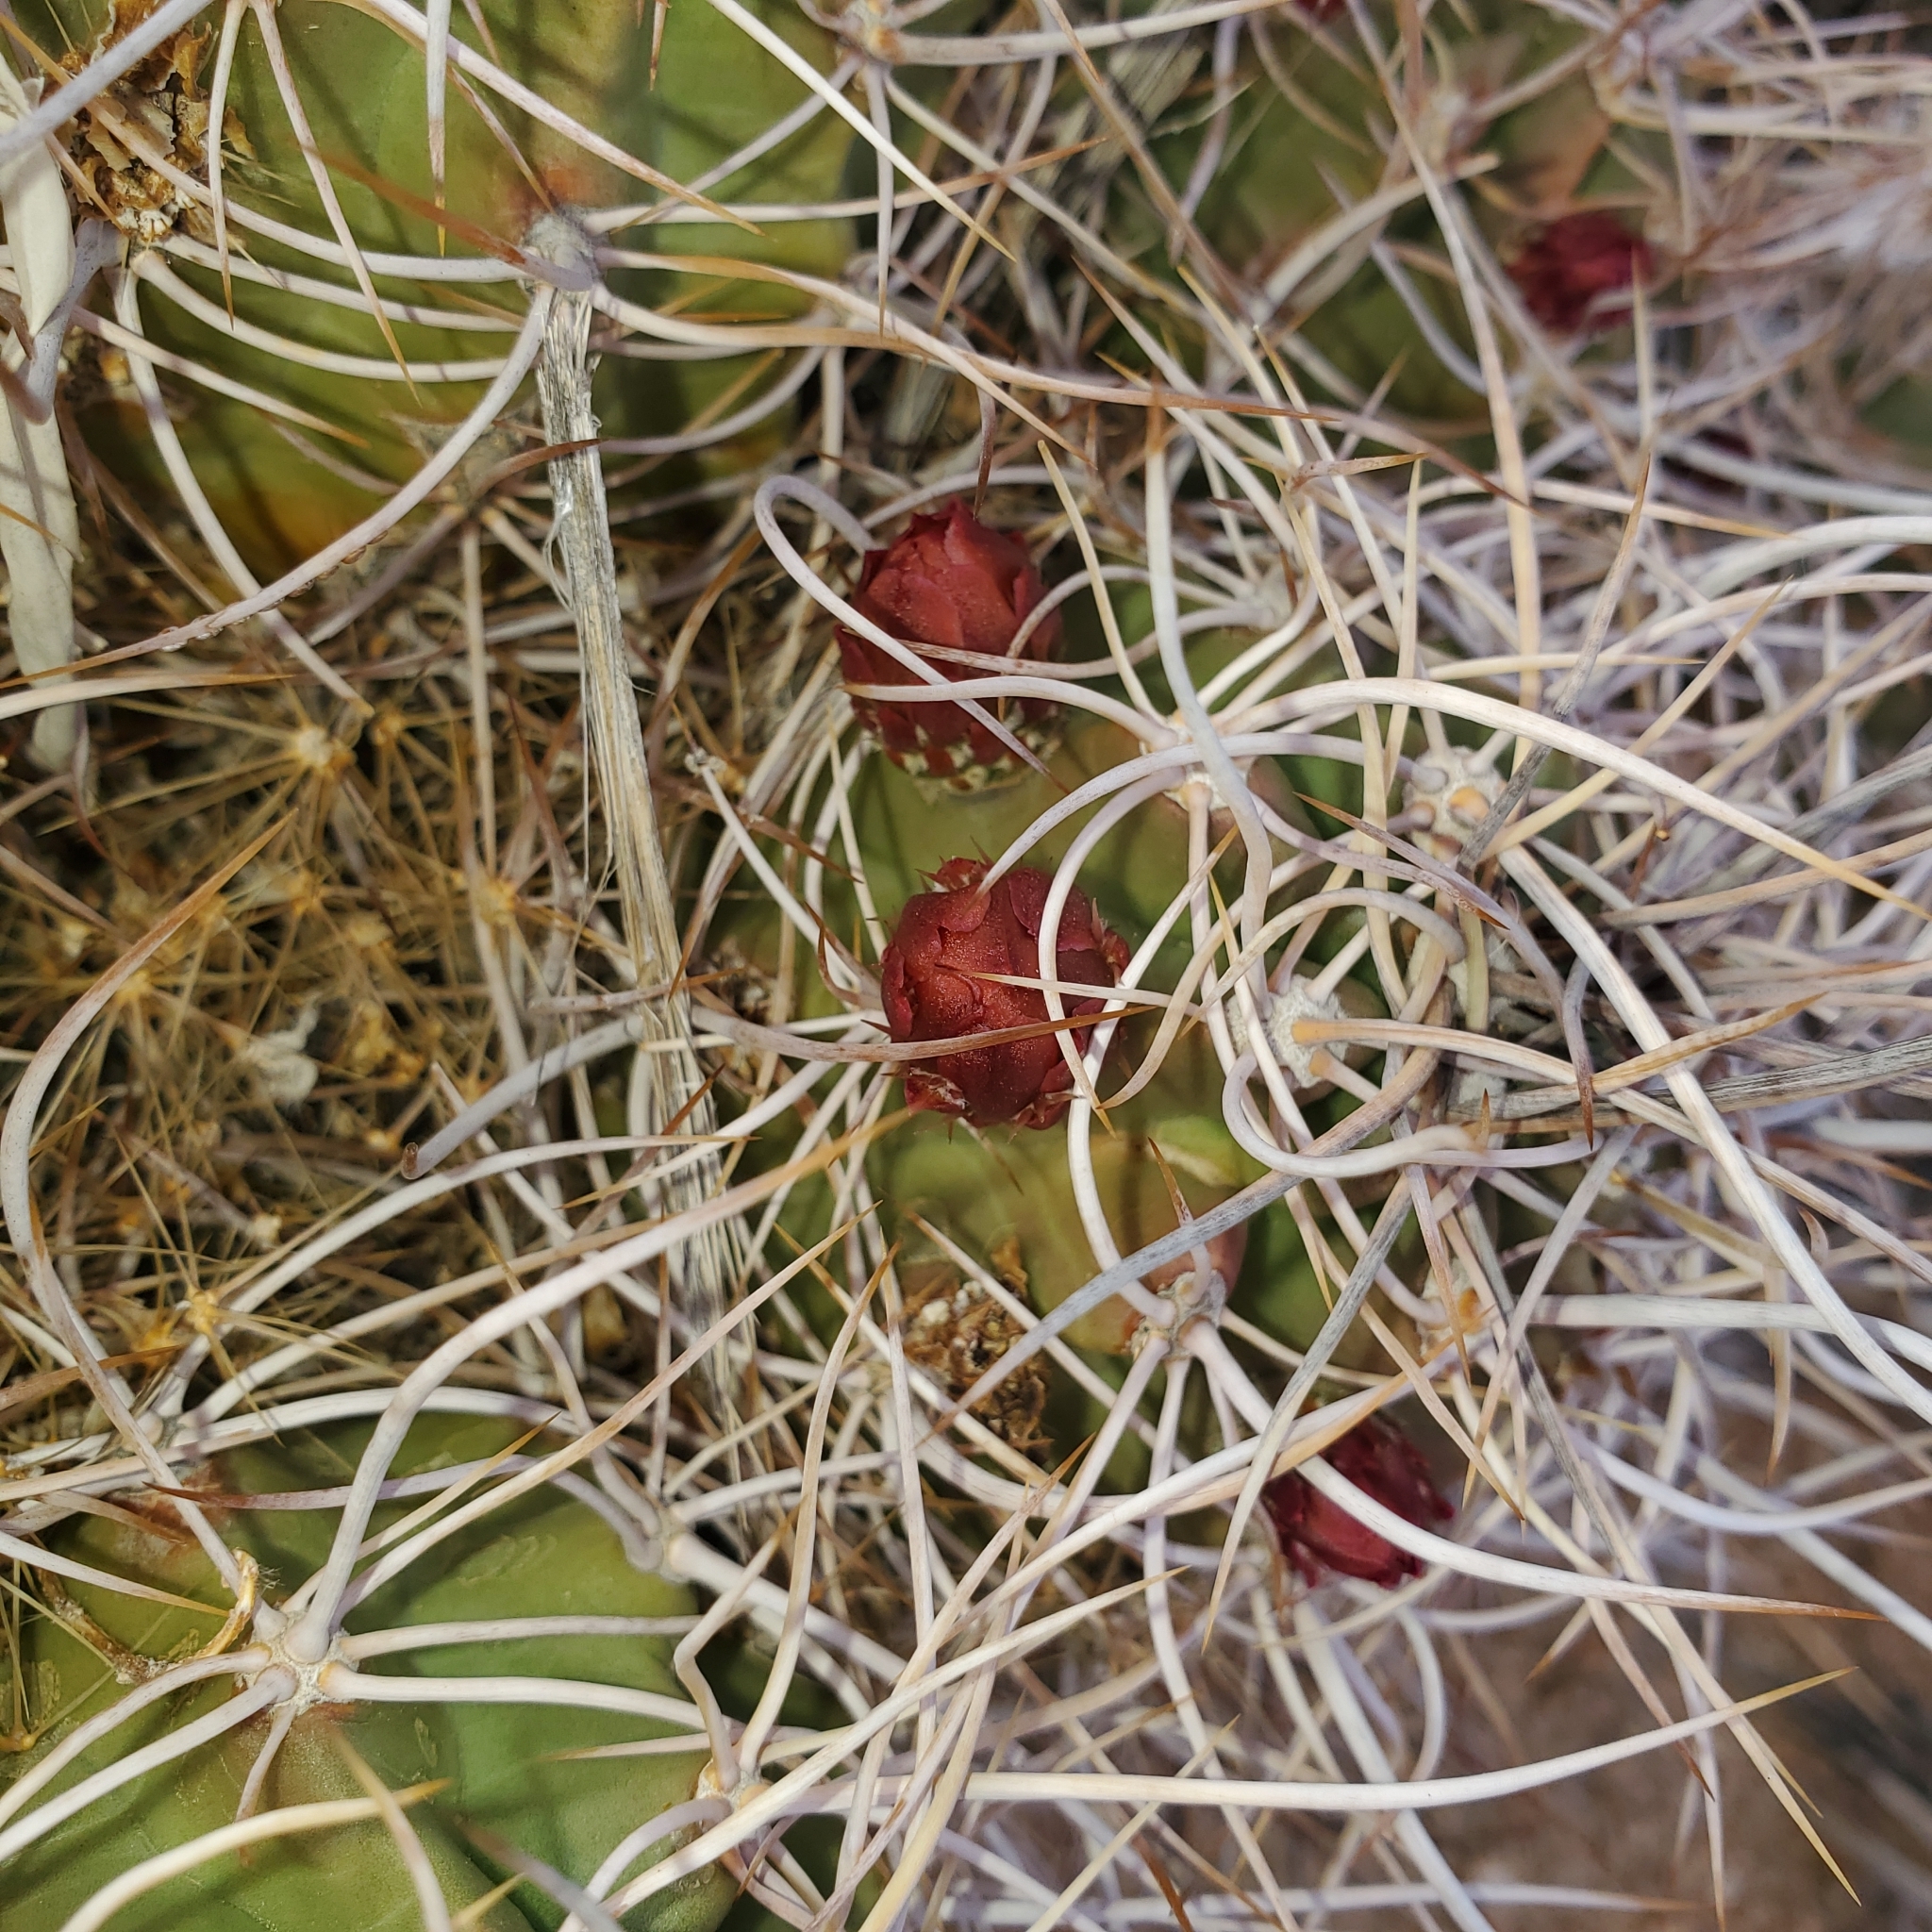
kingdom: Plantae
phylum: Tracheophyta
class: Magnoliopsida
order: Caryophyllales
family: Cactaceae
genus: Echinocereus
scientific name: Echinocereus triglochidiatus
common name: Claretcup hedgehog
